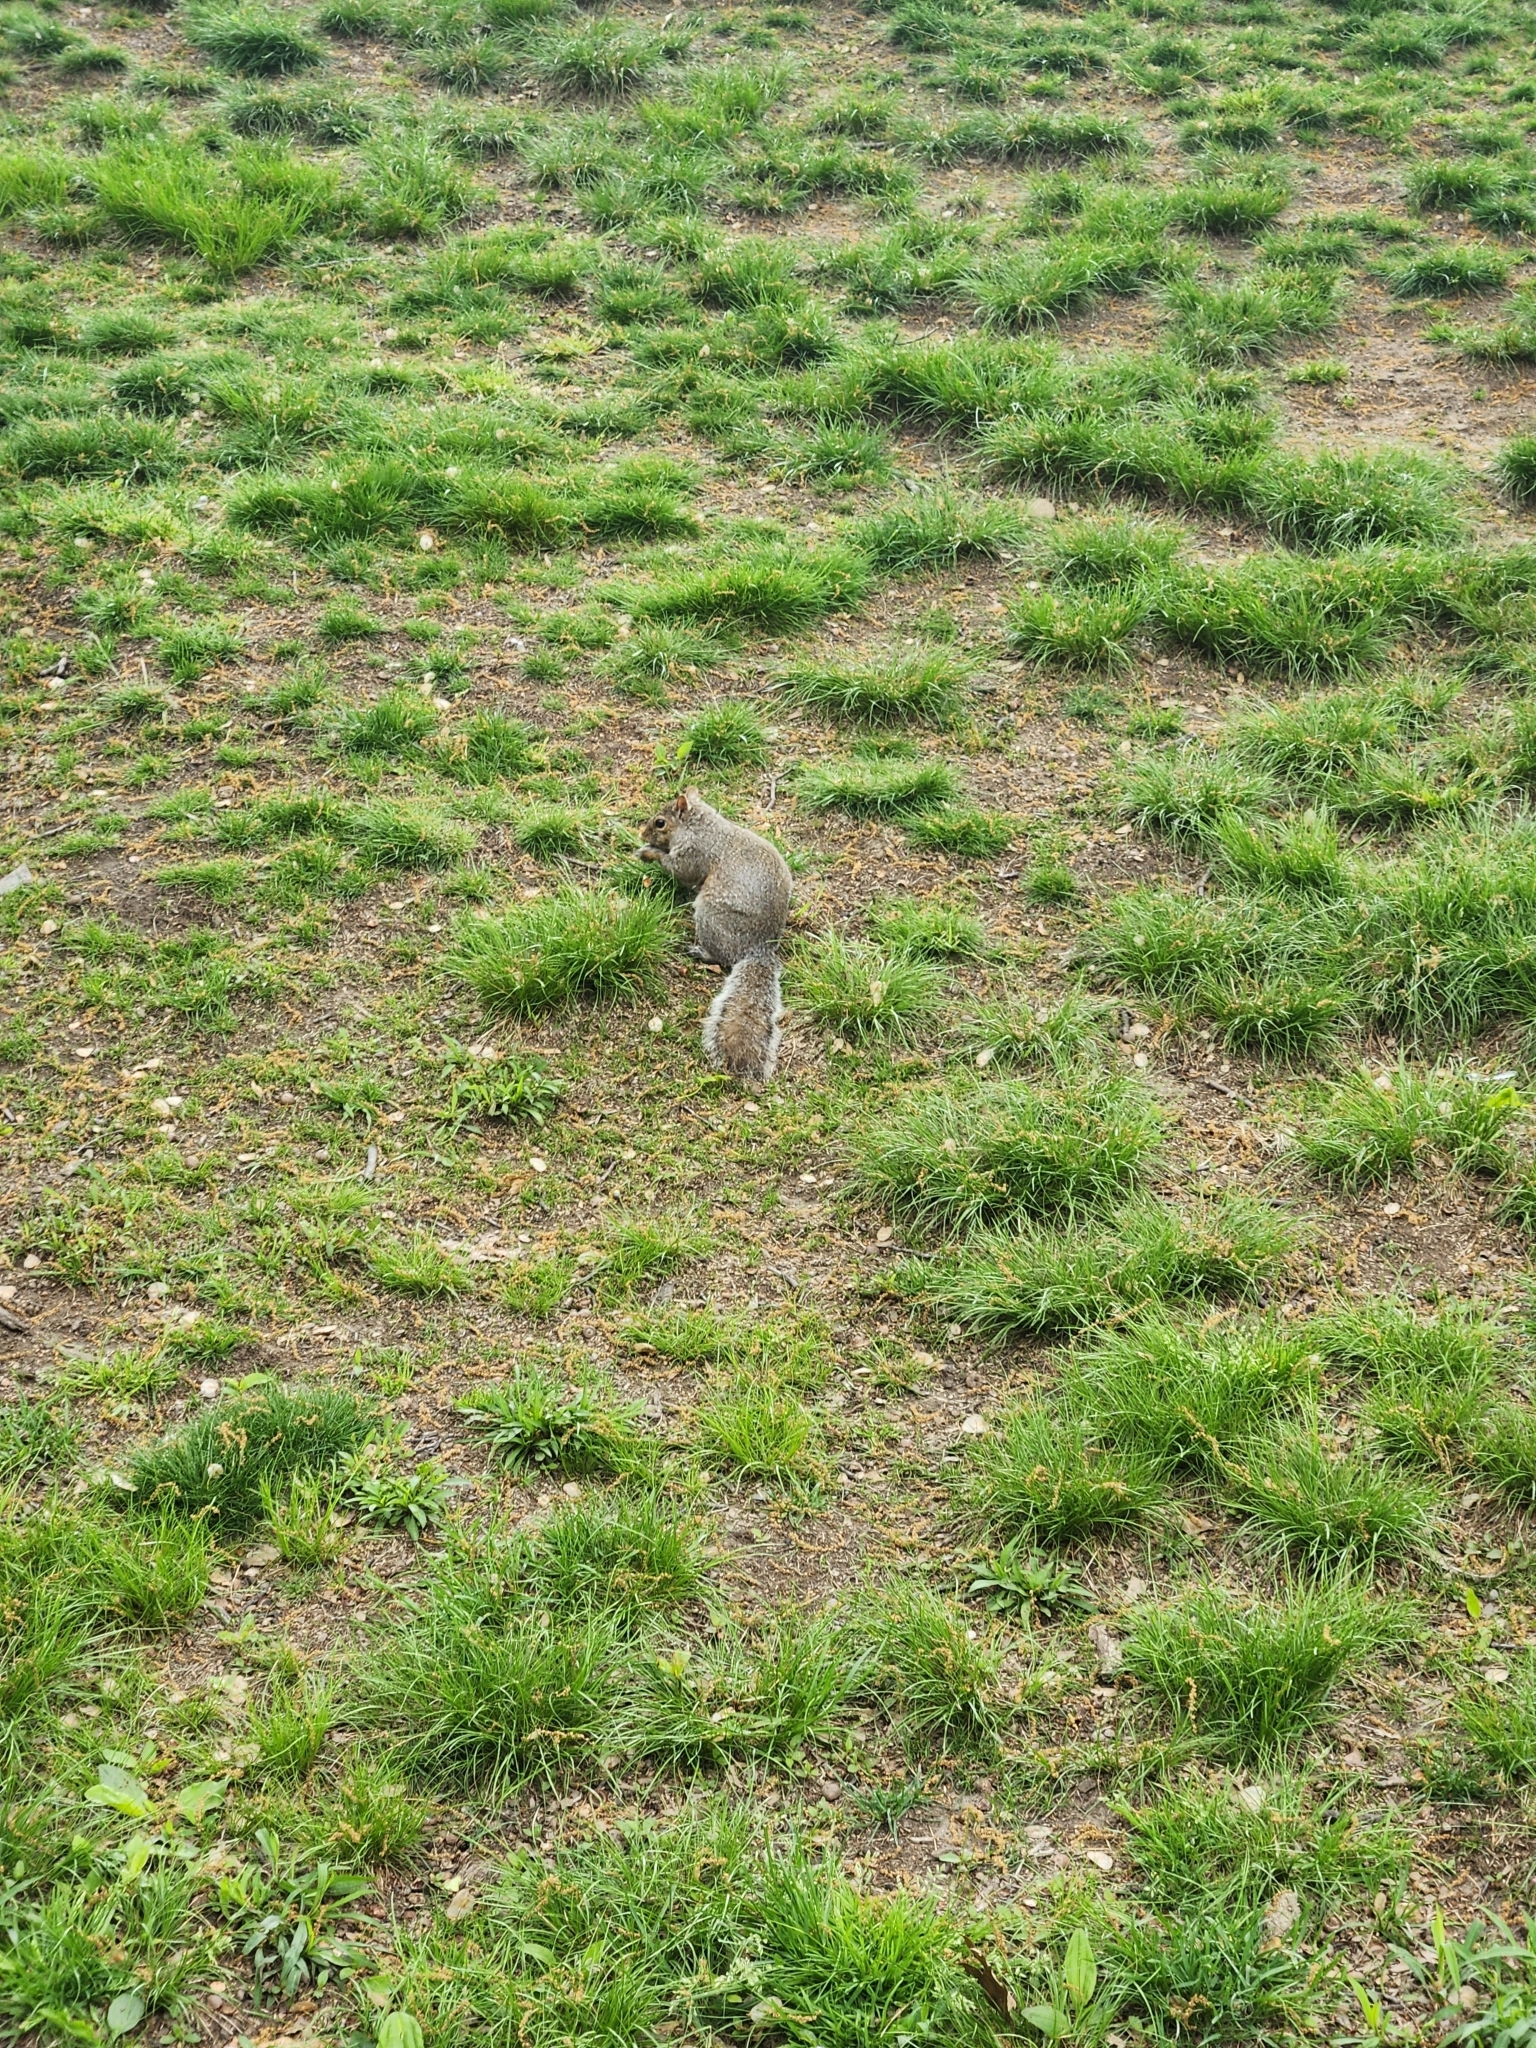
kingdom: Animalia
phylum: Chordata
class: Mammalia
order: Rodentia
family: Sciuridae
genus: Sciurus
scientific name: Sciurus carolinensis
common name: Eastern gray squirrel
